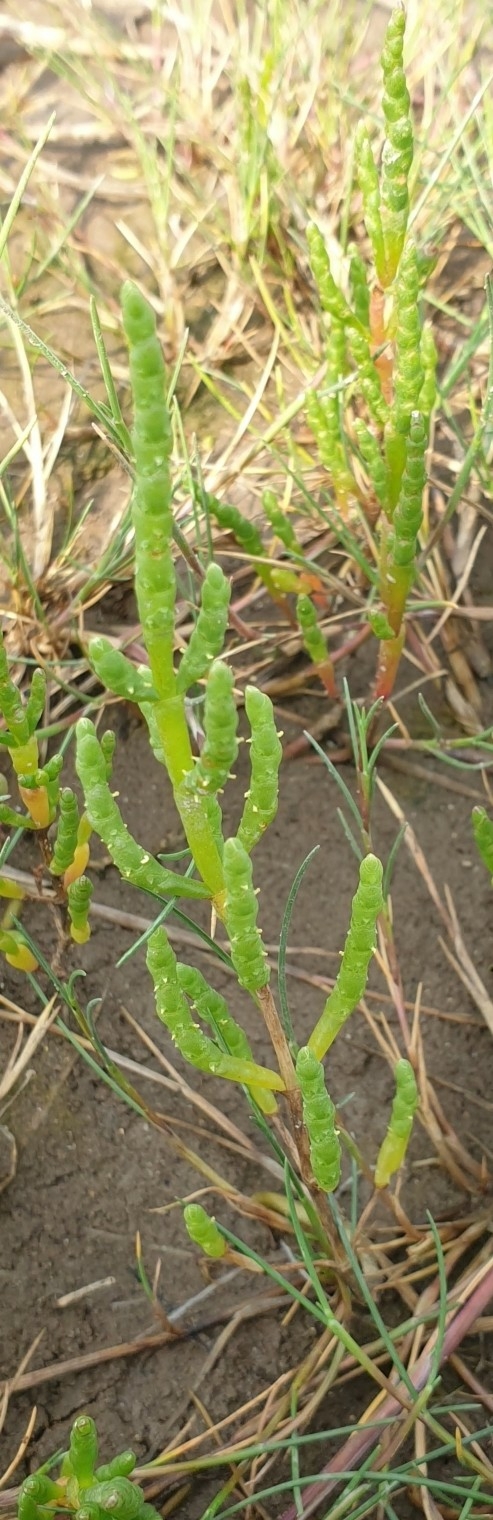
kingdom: Plantae
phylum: Tracheophyta
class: Magnoliopsida
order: Caryophyllales
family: Amaranthaceae
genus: Salicornia
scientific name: Salicornia europaea
